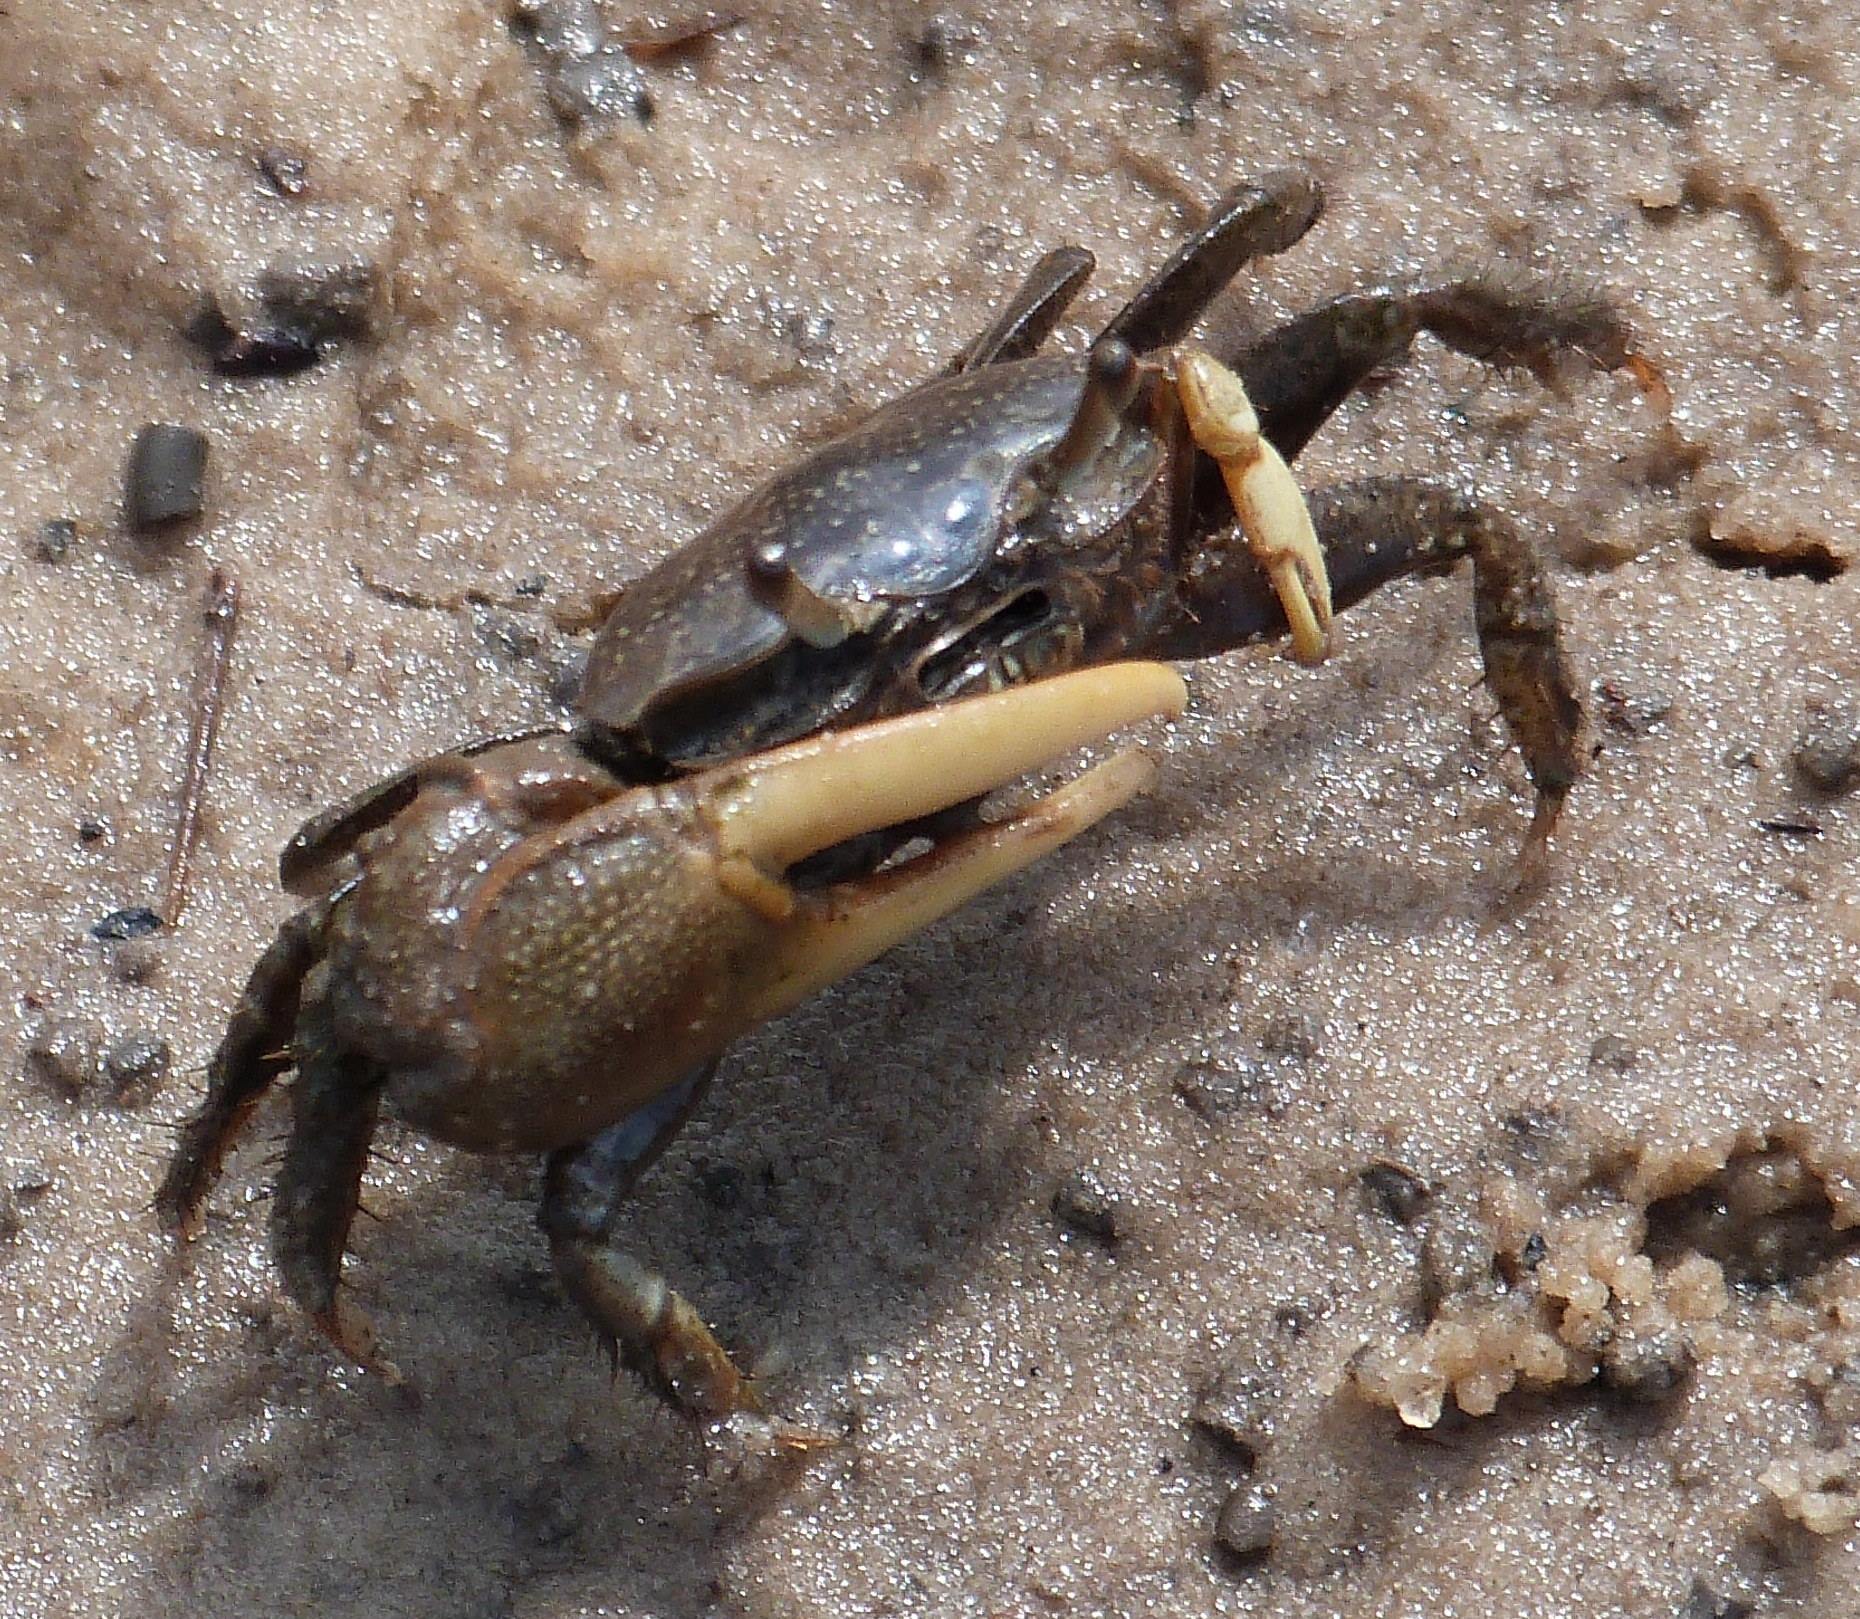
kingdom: Animalia
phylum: Arthropoda
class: Malacostraca
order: Decapoda
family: Ocypodidae
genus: Minuca
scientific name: Minuca pugnax
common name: Mud fiddler crab
